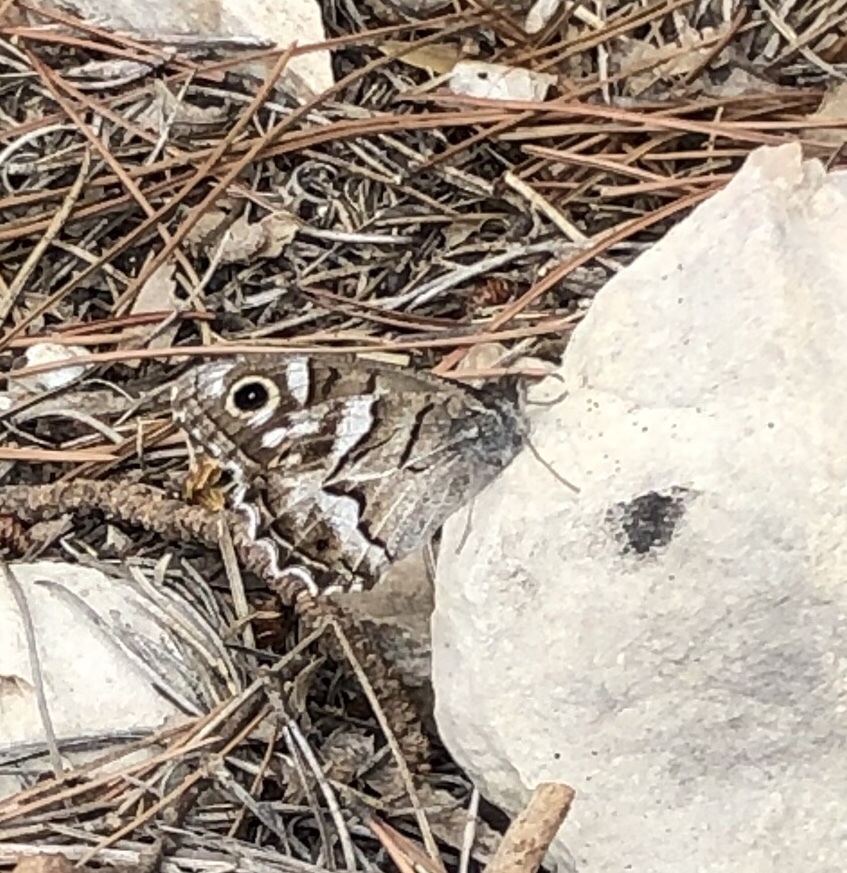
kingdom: Animalia
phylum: Arthropoda
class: Insecta
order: Lepidoptera
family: Nymphalidae
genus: Hipparchia
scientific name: Hipparchia fidia
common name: Striped grayling
